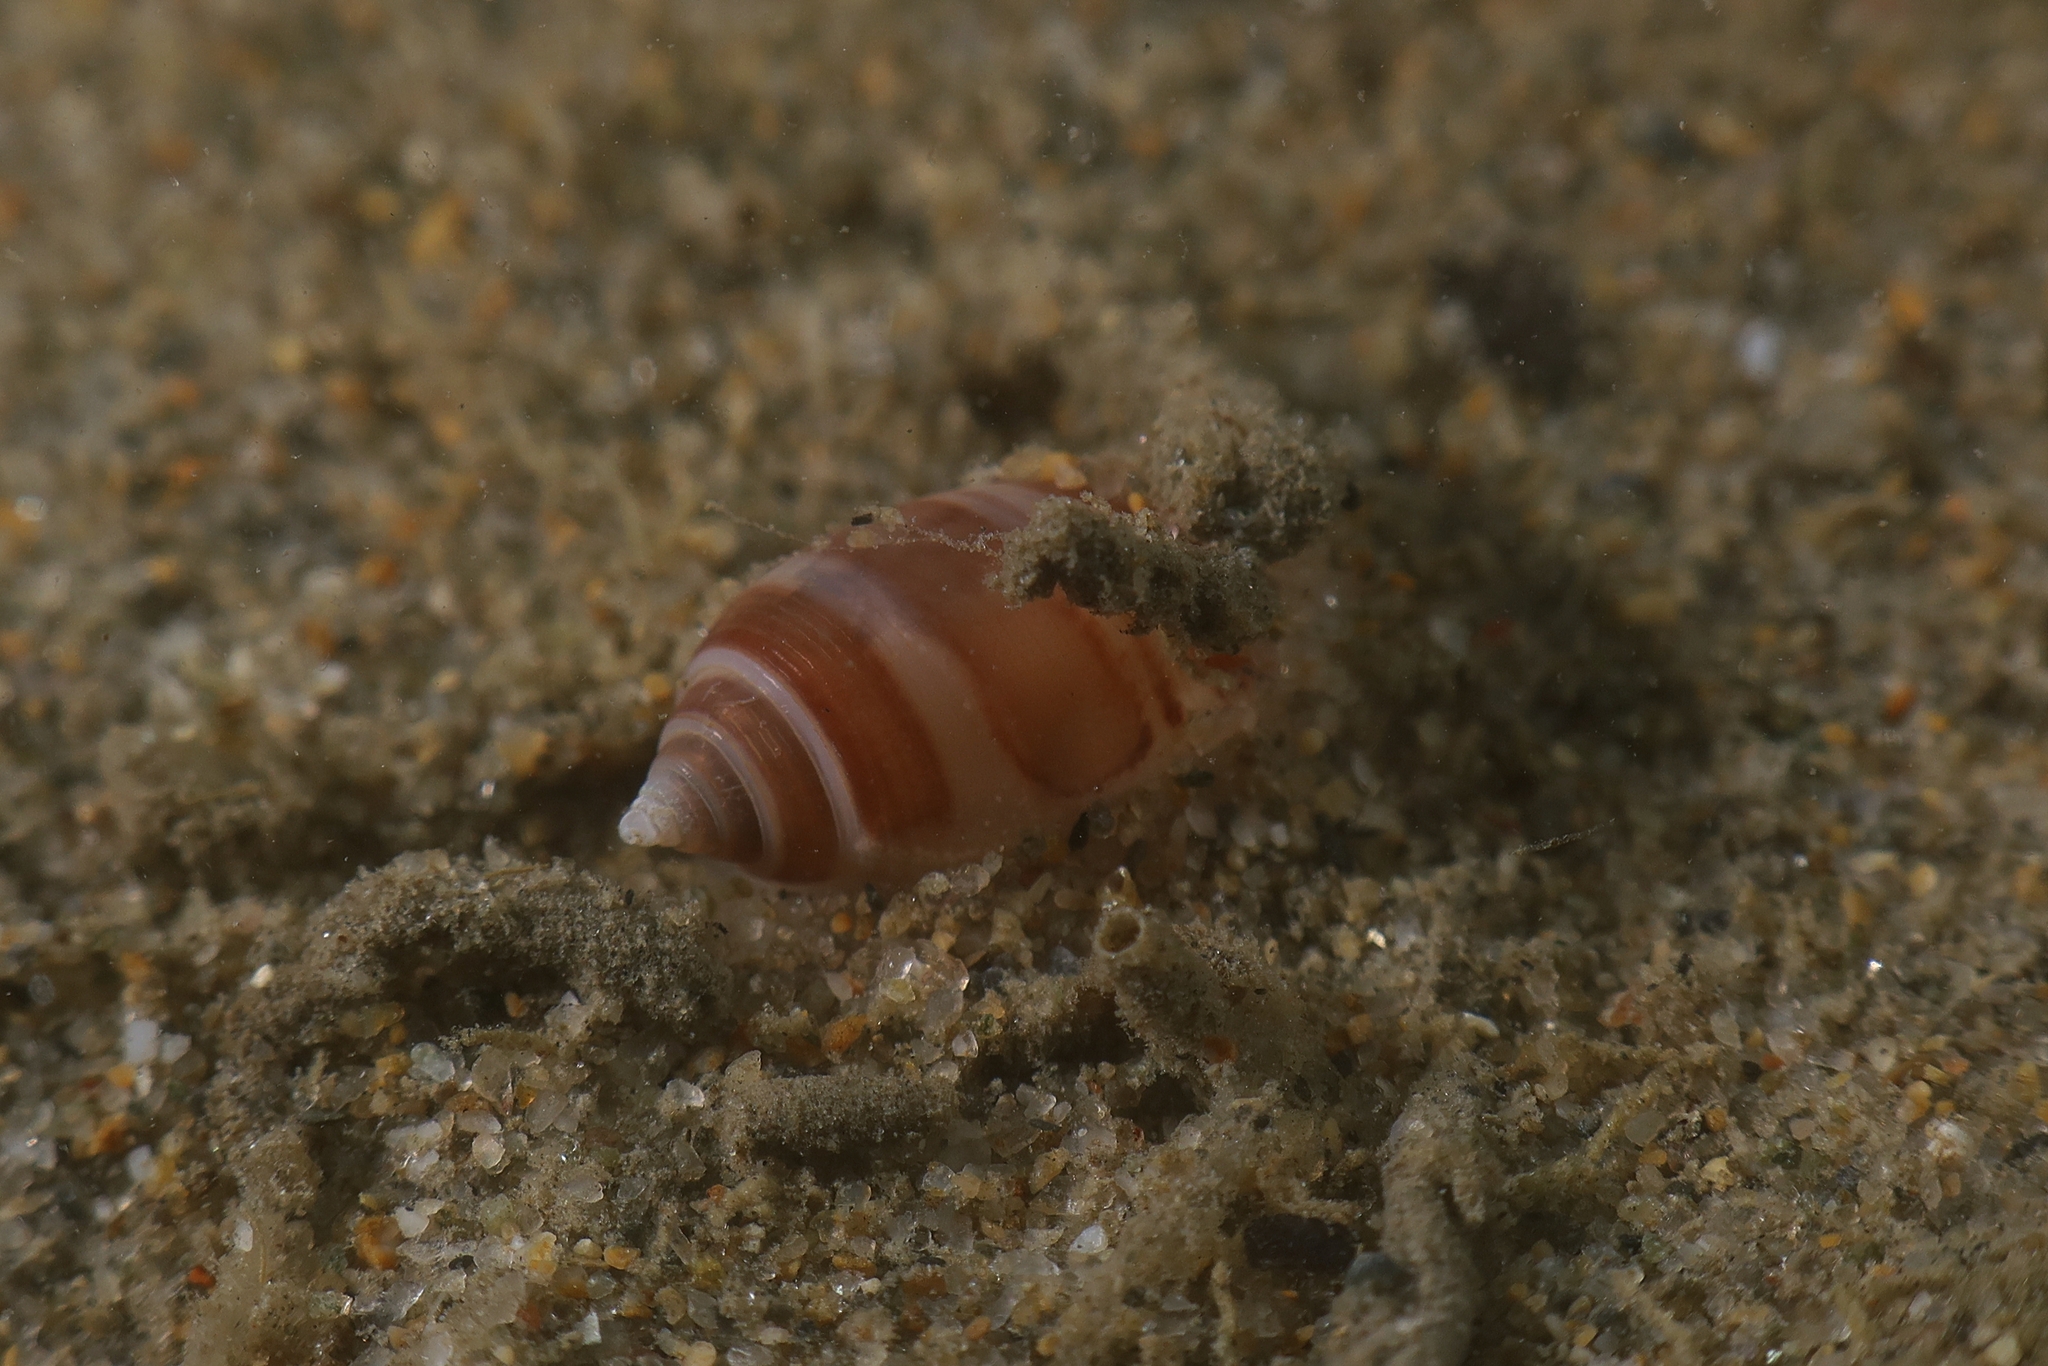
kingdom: Animalia
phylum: Mollusca
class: Gastropoda
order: Cephalaspidea
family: Acteonidae
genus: Acteon
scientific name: Acteon tornatilis
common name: European acteon
